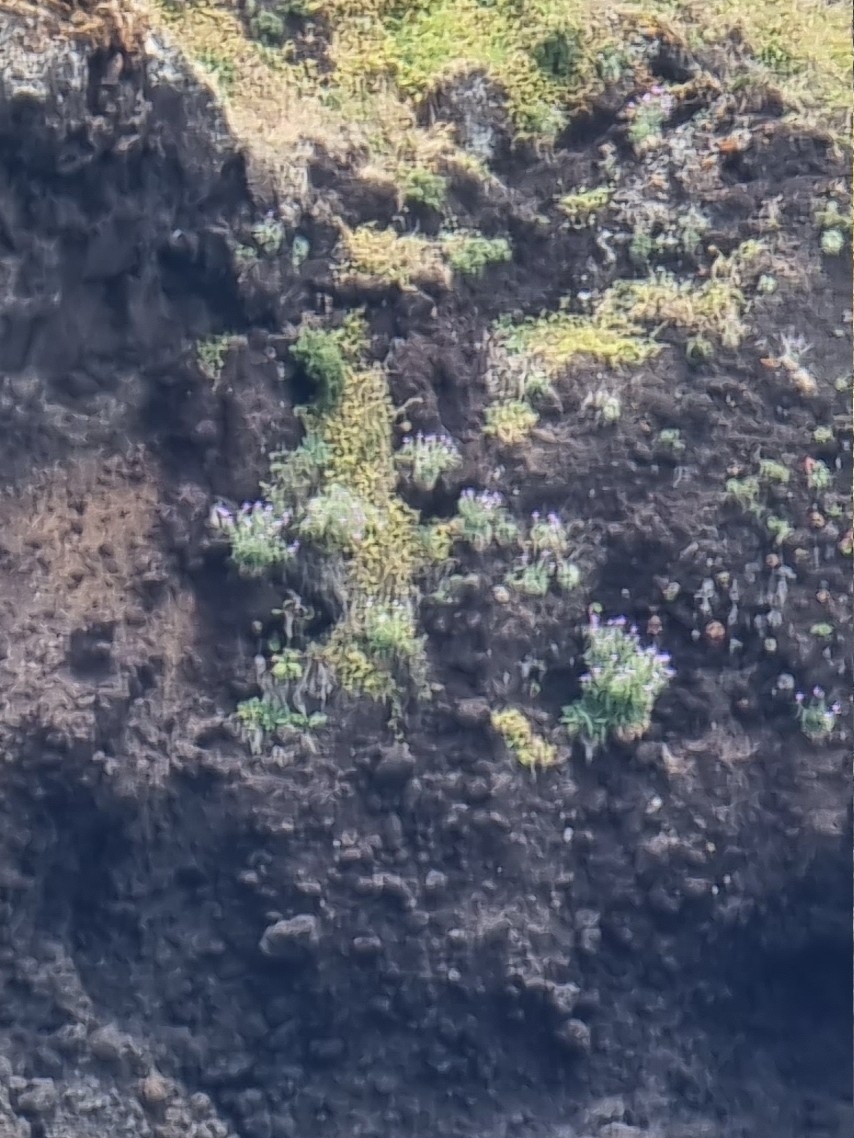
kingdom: Plantae
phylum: Tracheophyta
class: Magnoliopsida
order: Brassicales
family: Brassicaceae
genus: Matthiola
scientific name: Matthiola maderensis
